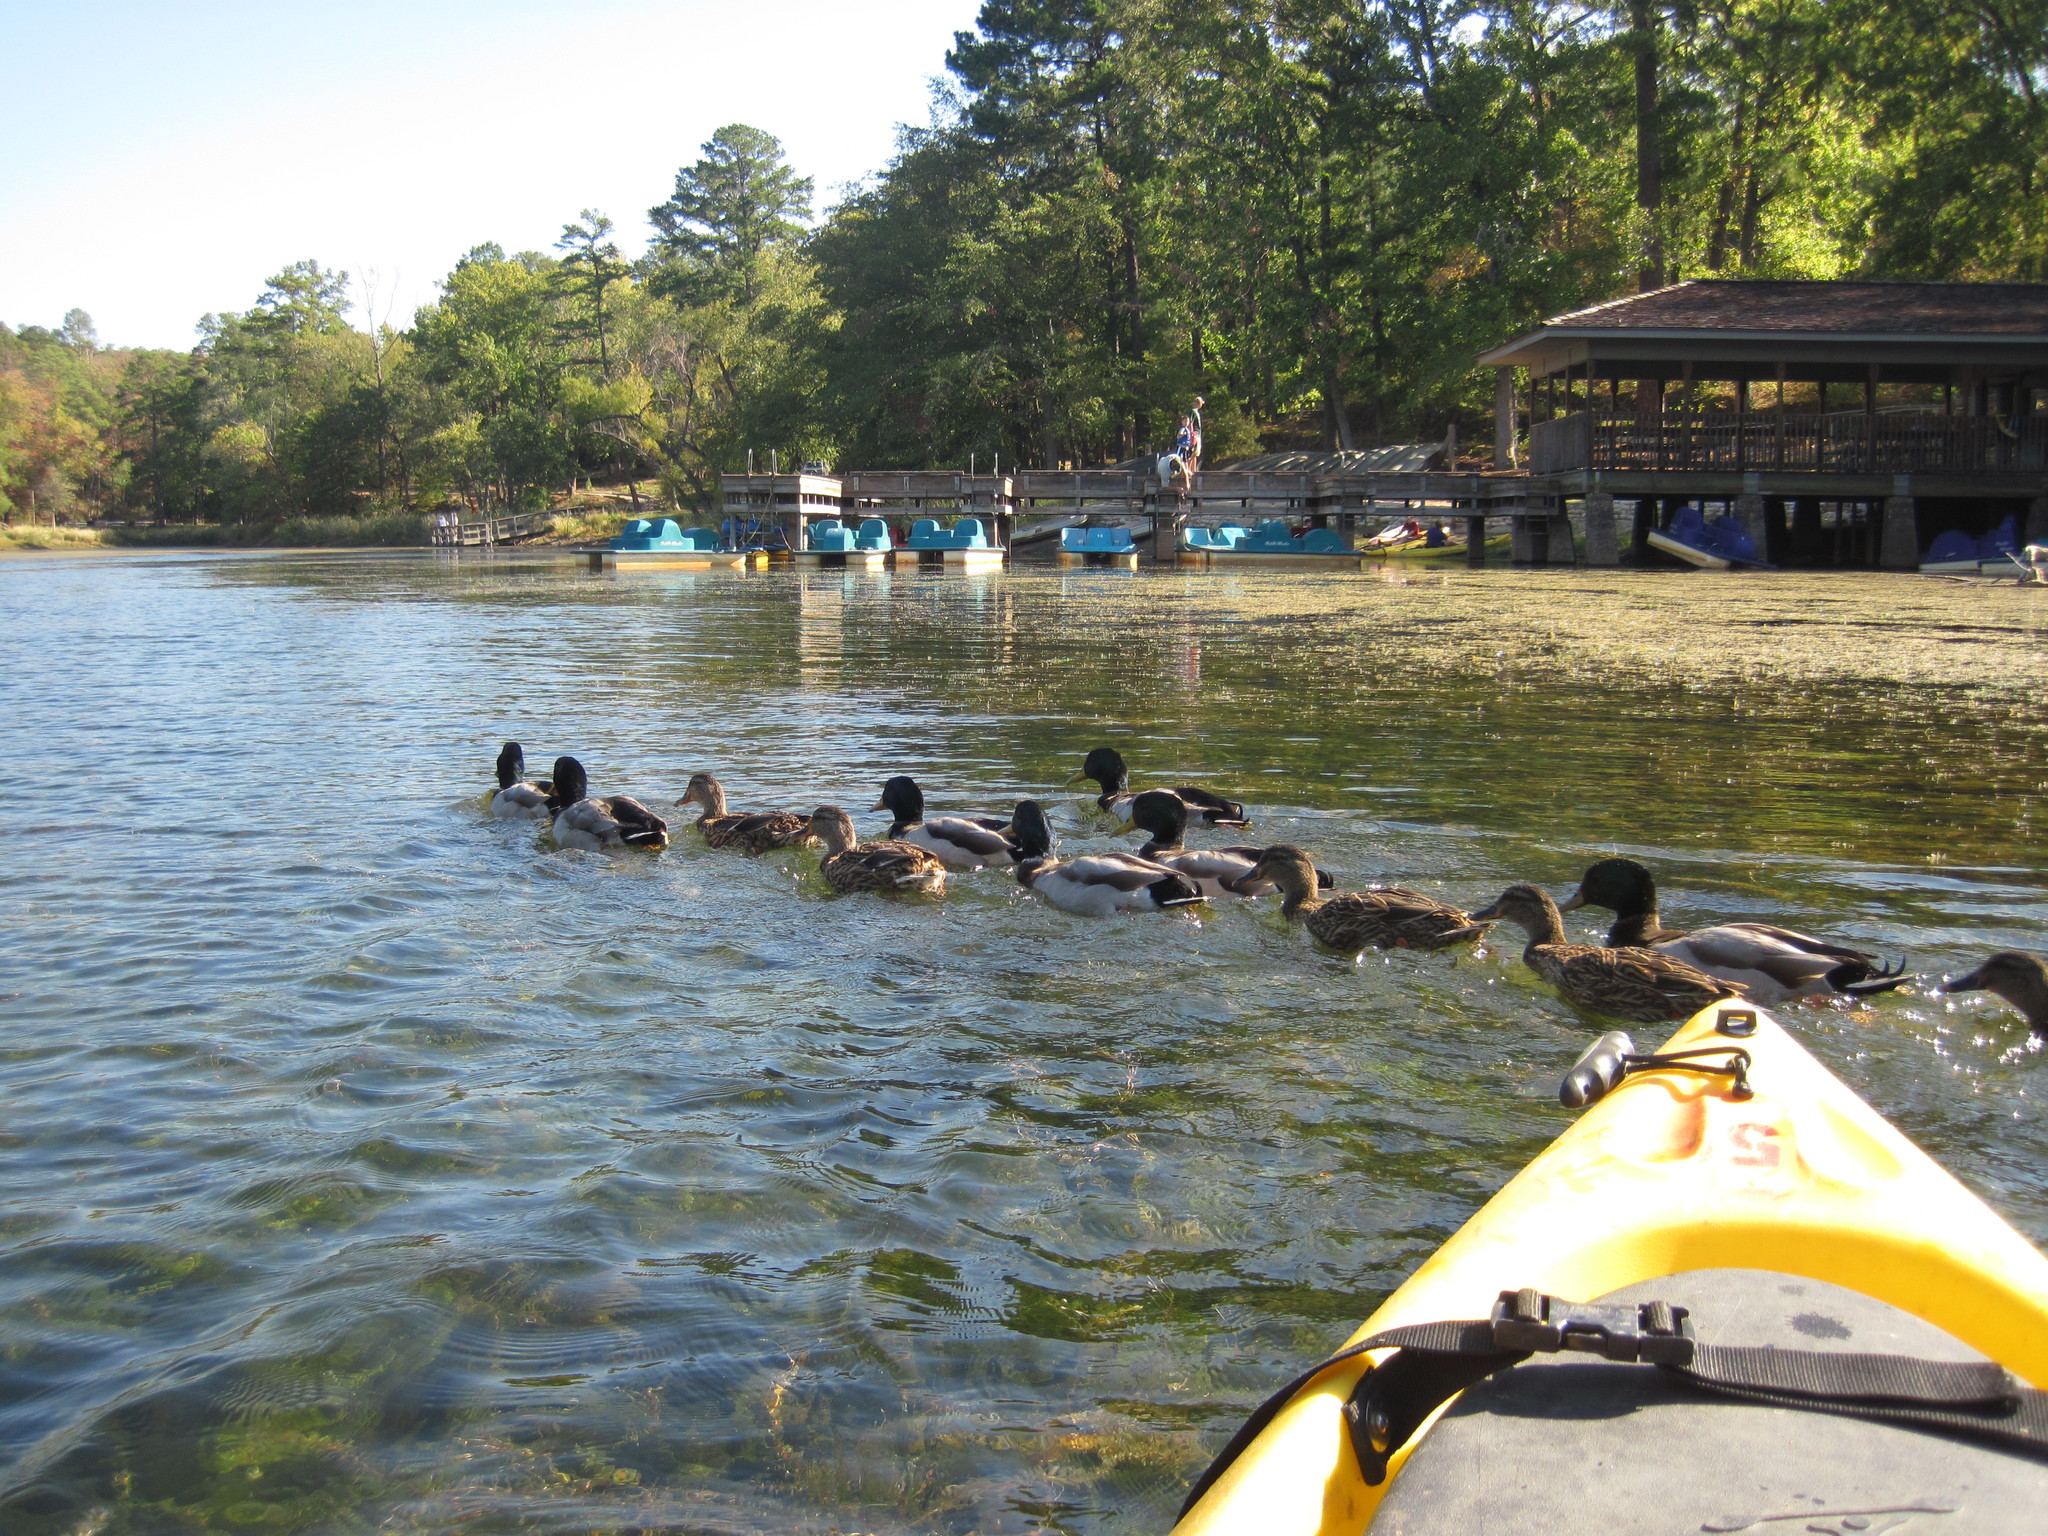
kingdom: Animalia
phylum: Chordata
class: Aves
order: Anseriformes
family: Anatidae
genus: Anas
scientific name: Anas platyrhynchos
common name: Mallard
